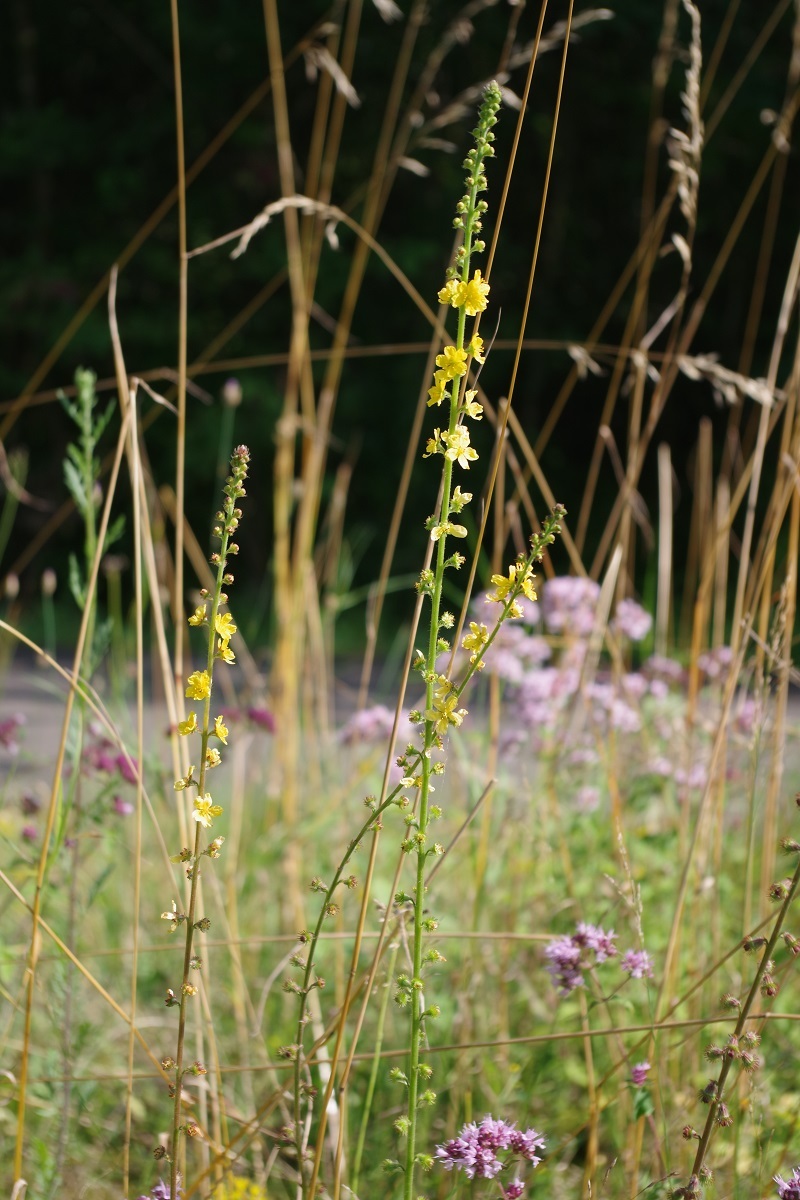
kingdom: Plantae
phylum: Tracheophyta
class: Magnoliopsida
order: Rosales
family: Rosaceae
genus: Agrimonia
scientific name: Agrimonia eupatoria
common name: Agrimony
